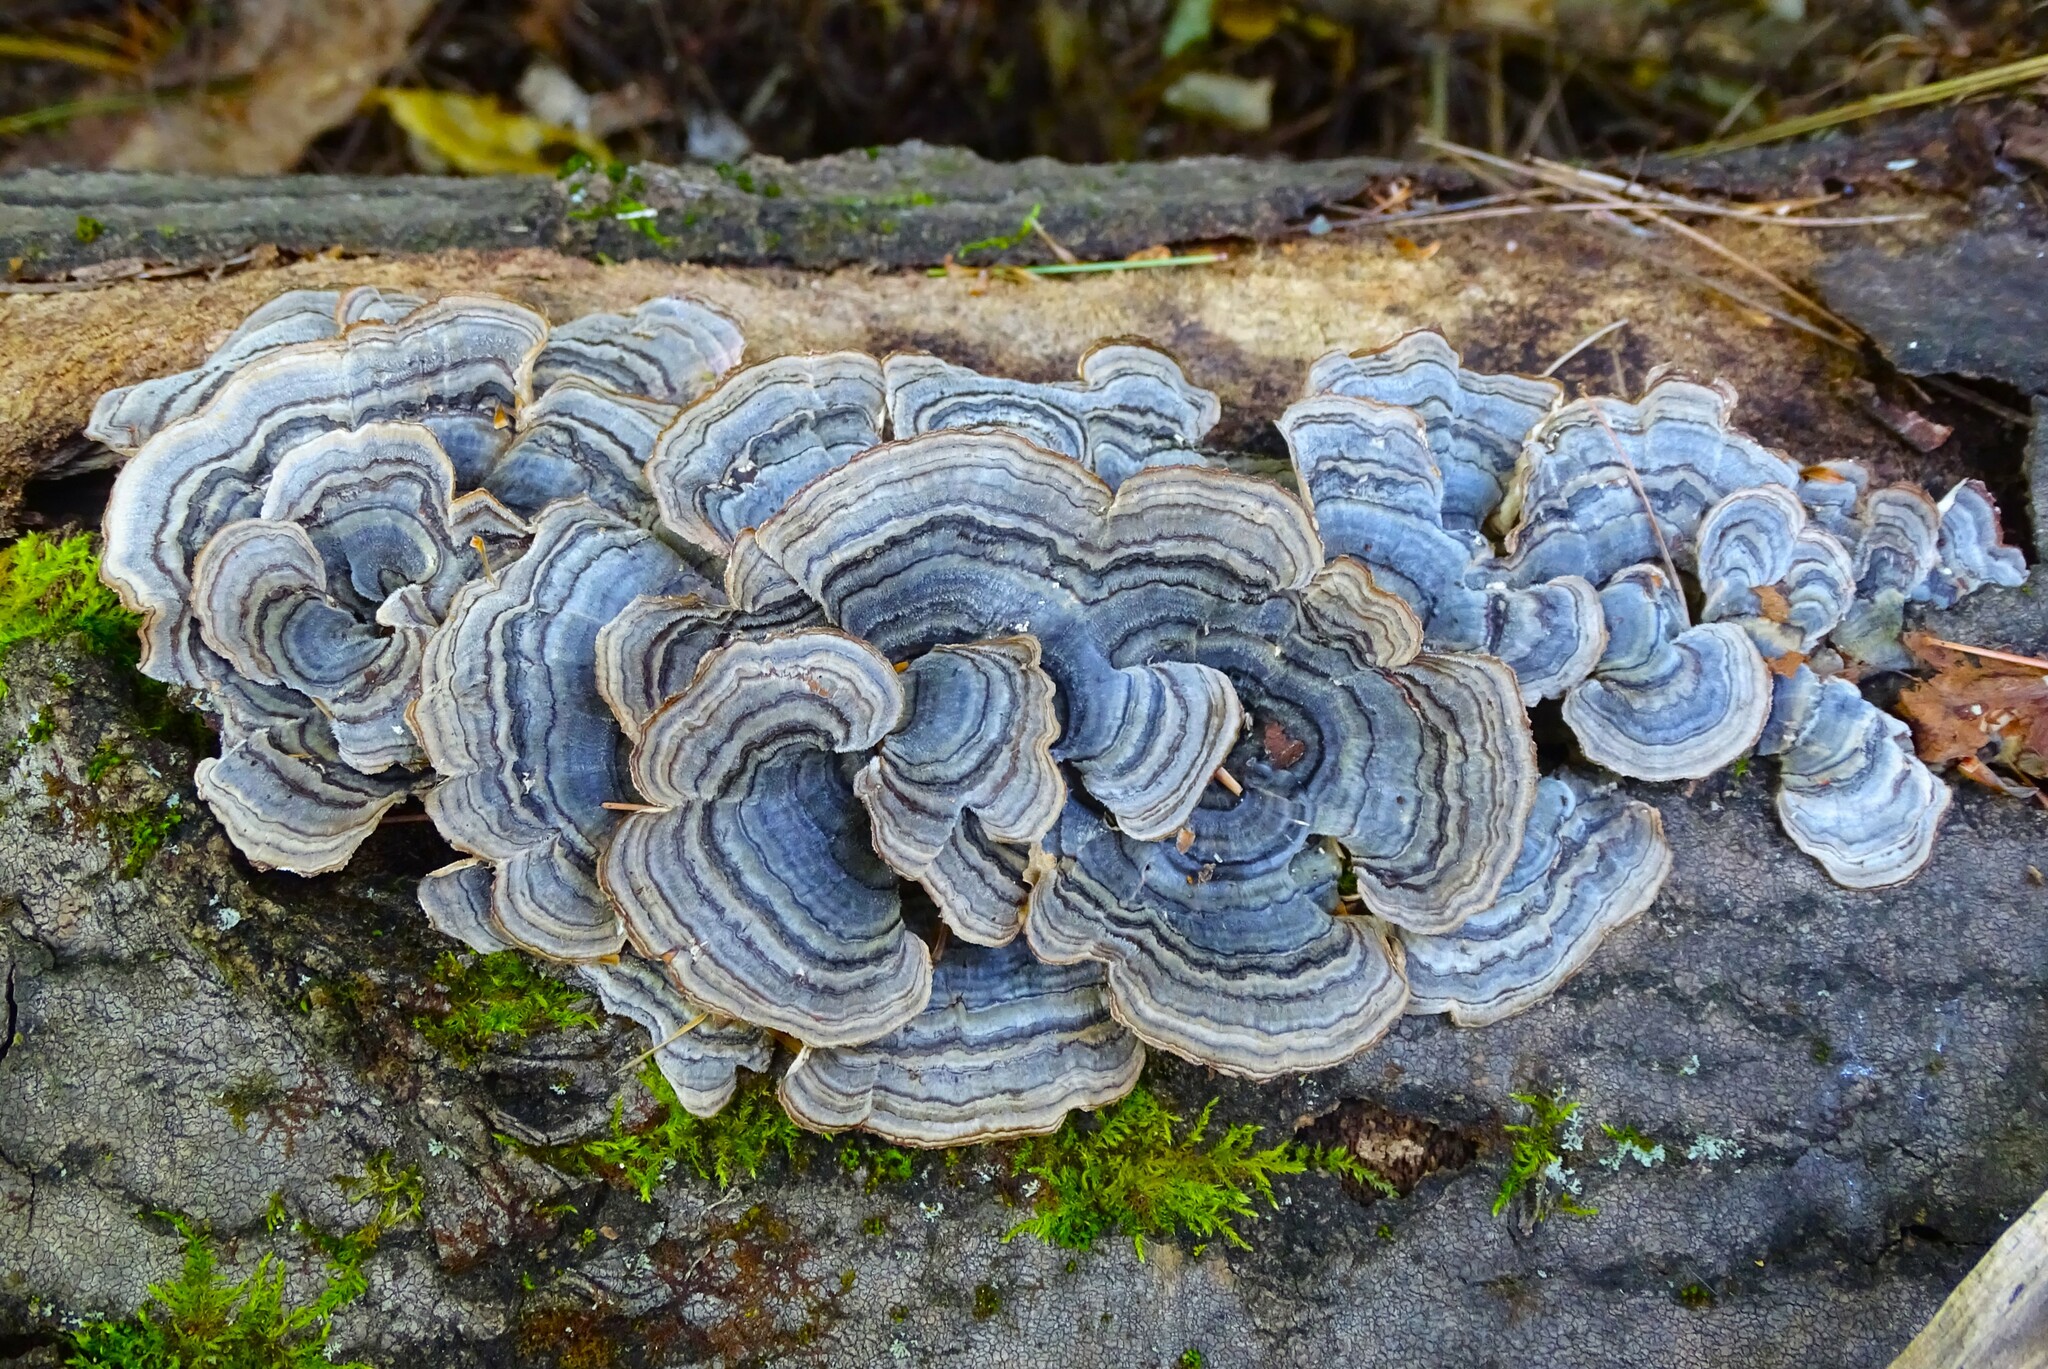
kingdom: Fungi
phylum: Basidiomycota
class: Agaricomycetes
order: Polyporales
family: Polyporaceae
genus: Trametes
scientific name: Trametes versicolor
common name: Turkeytail
